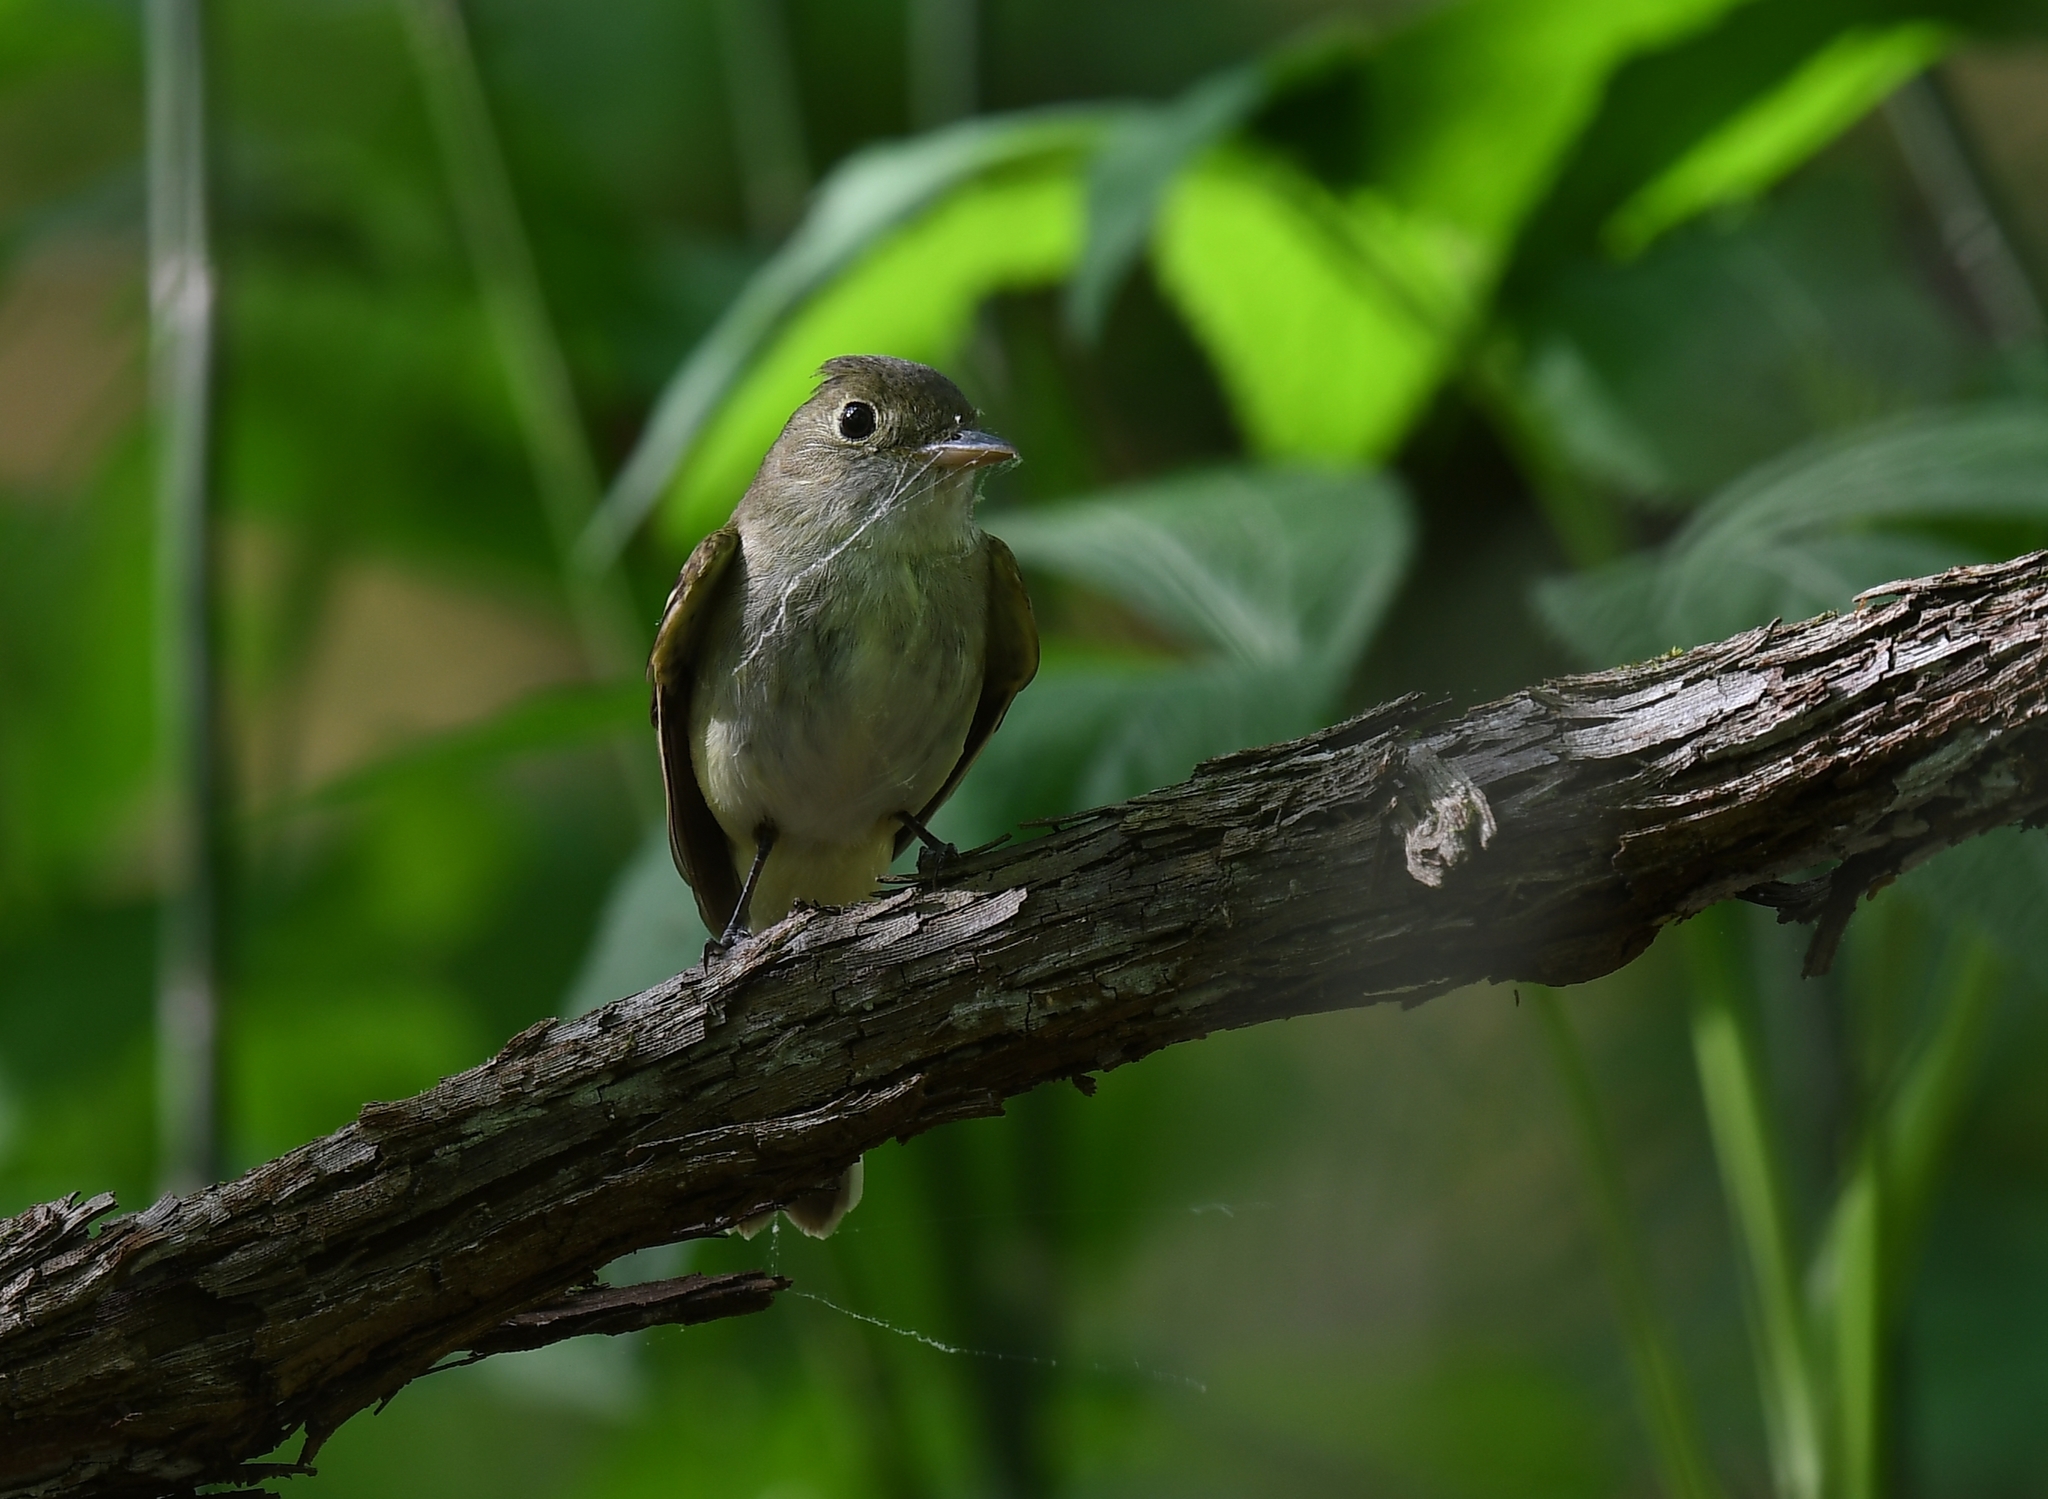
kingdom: Animalia
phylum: Chordata
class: Aves
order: Passeriformes
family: Tyrannidae
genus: Empidonax
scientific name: Empidonax virescens
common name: Acadian flycatcher
